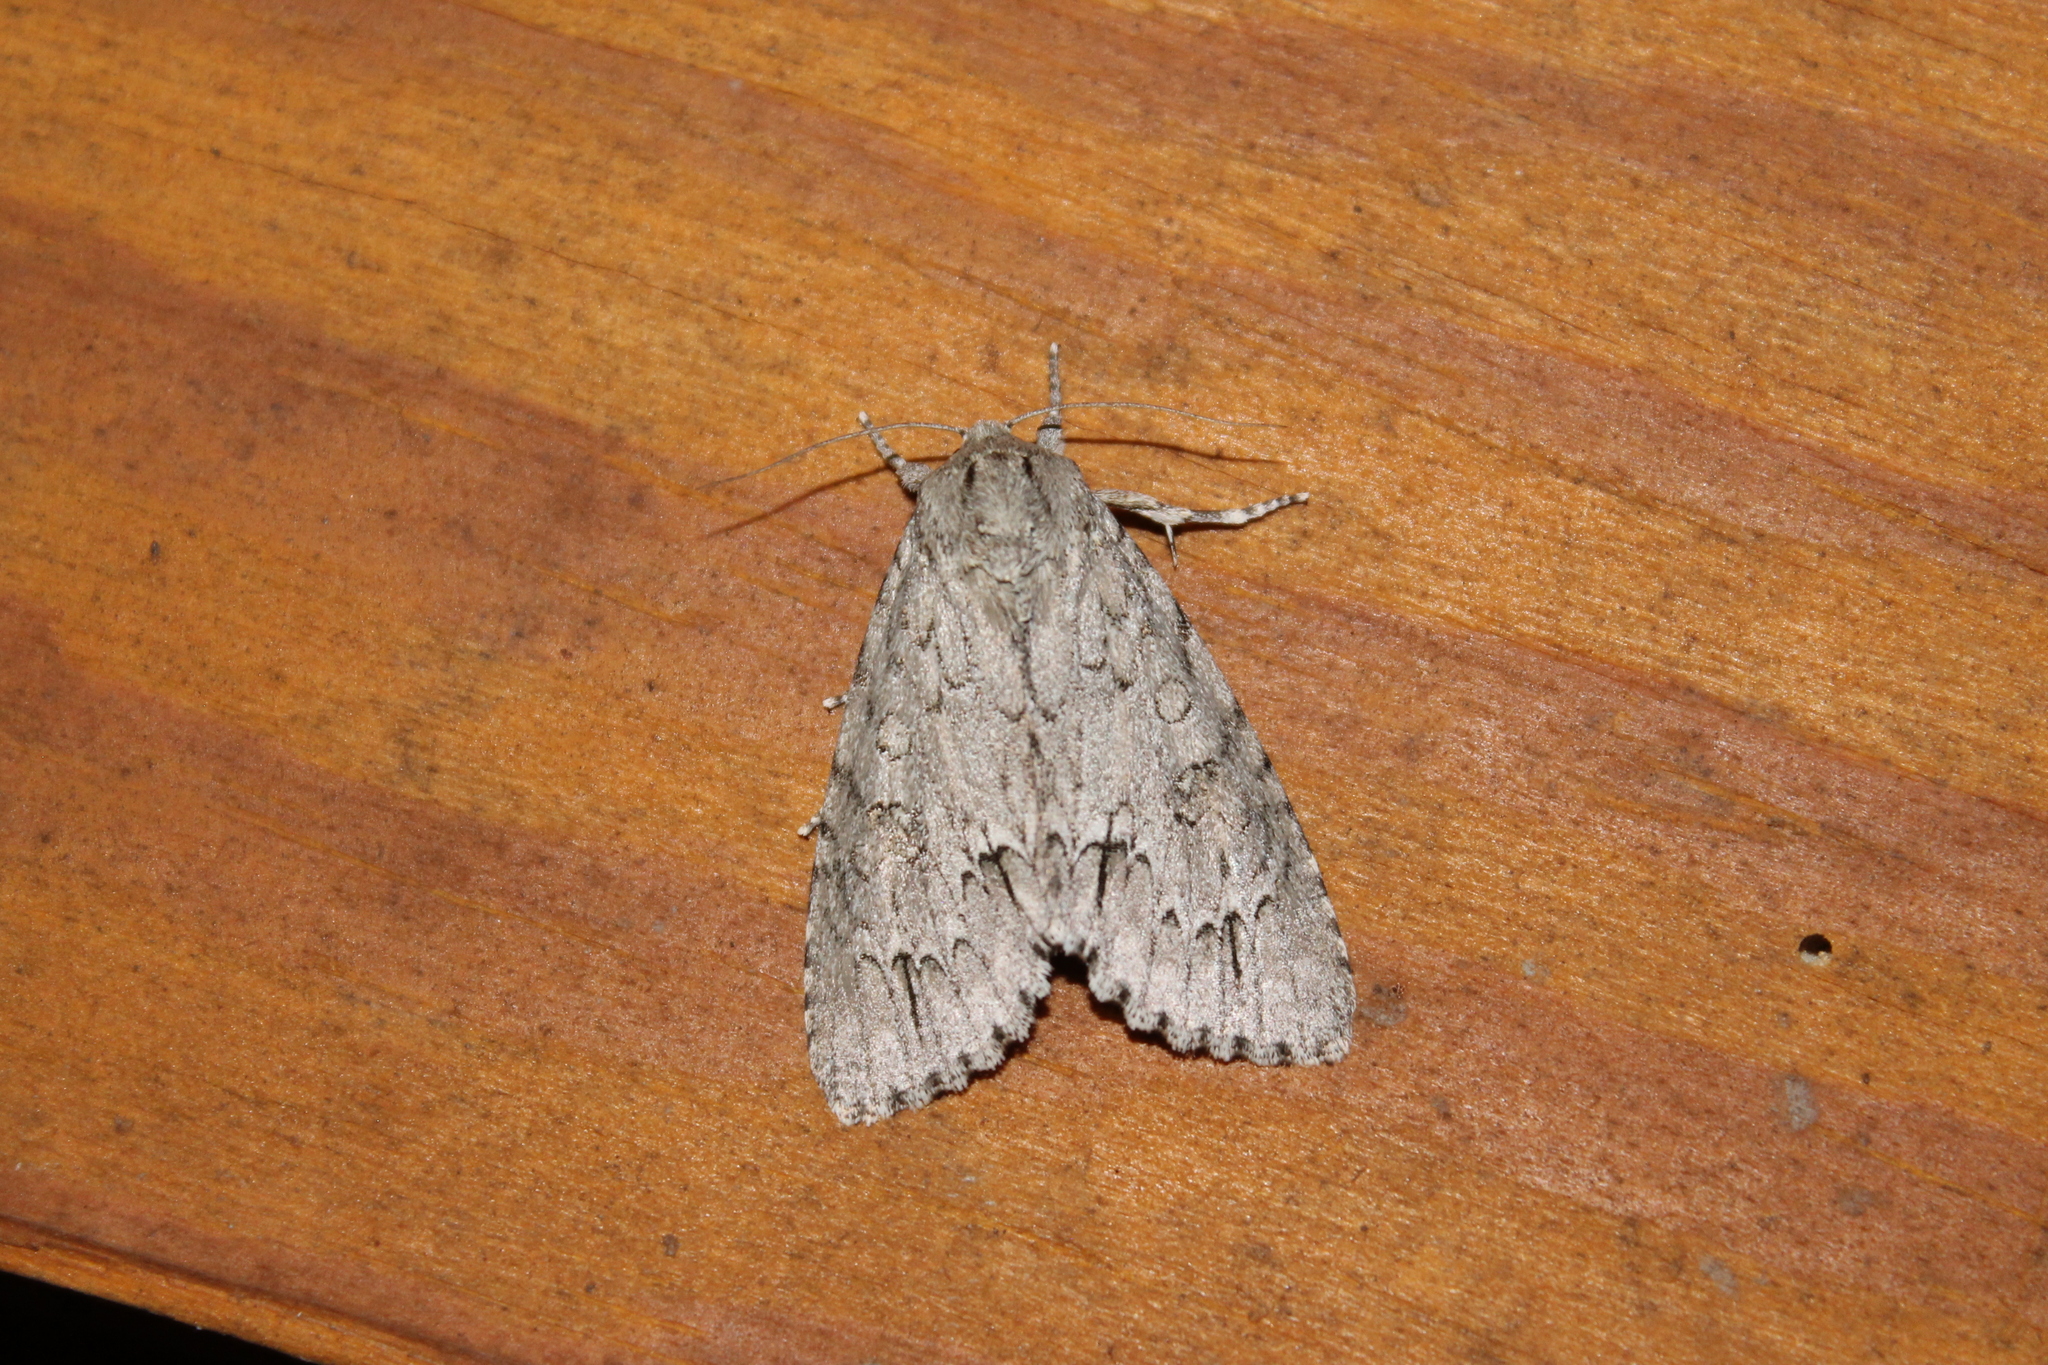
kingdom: Animalia
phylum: Arthropoda
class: Insecta
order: Lepidoptera
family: Noctuidae
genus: Acronicta
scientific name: Acronicta americana
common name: American dagger
